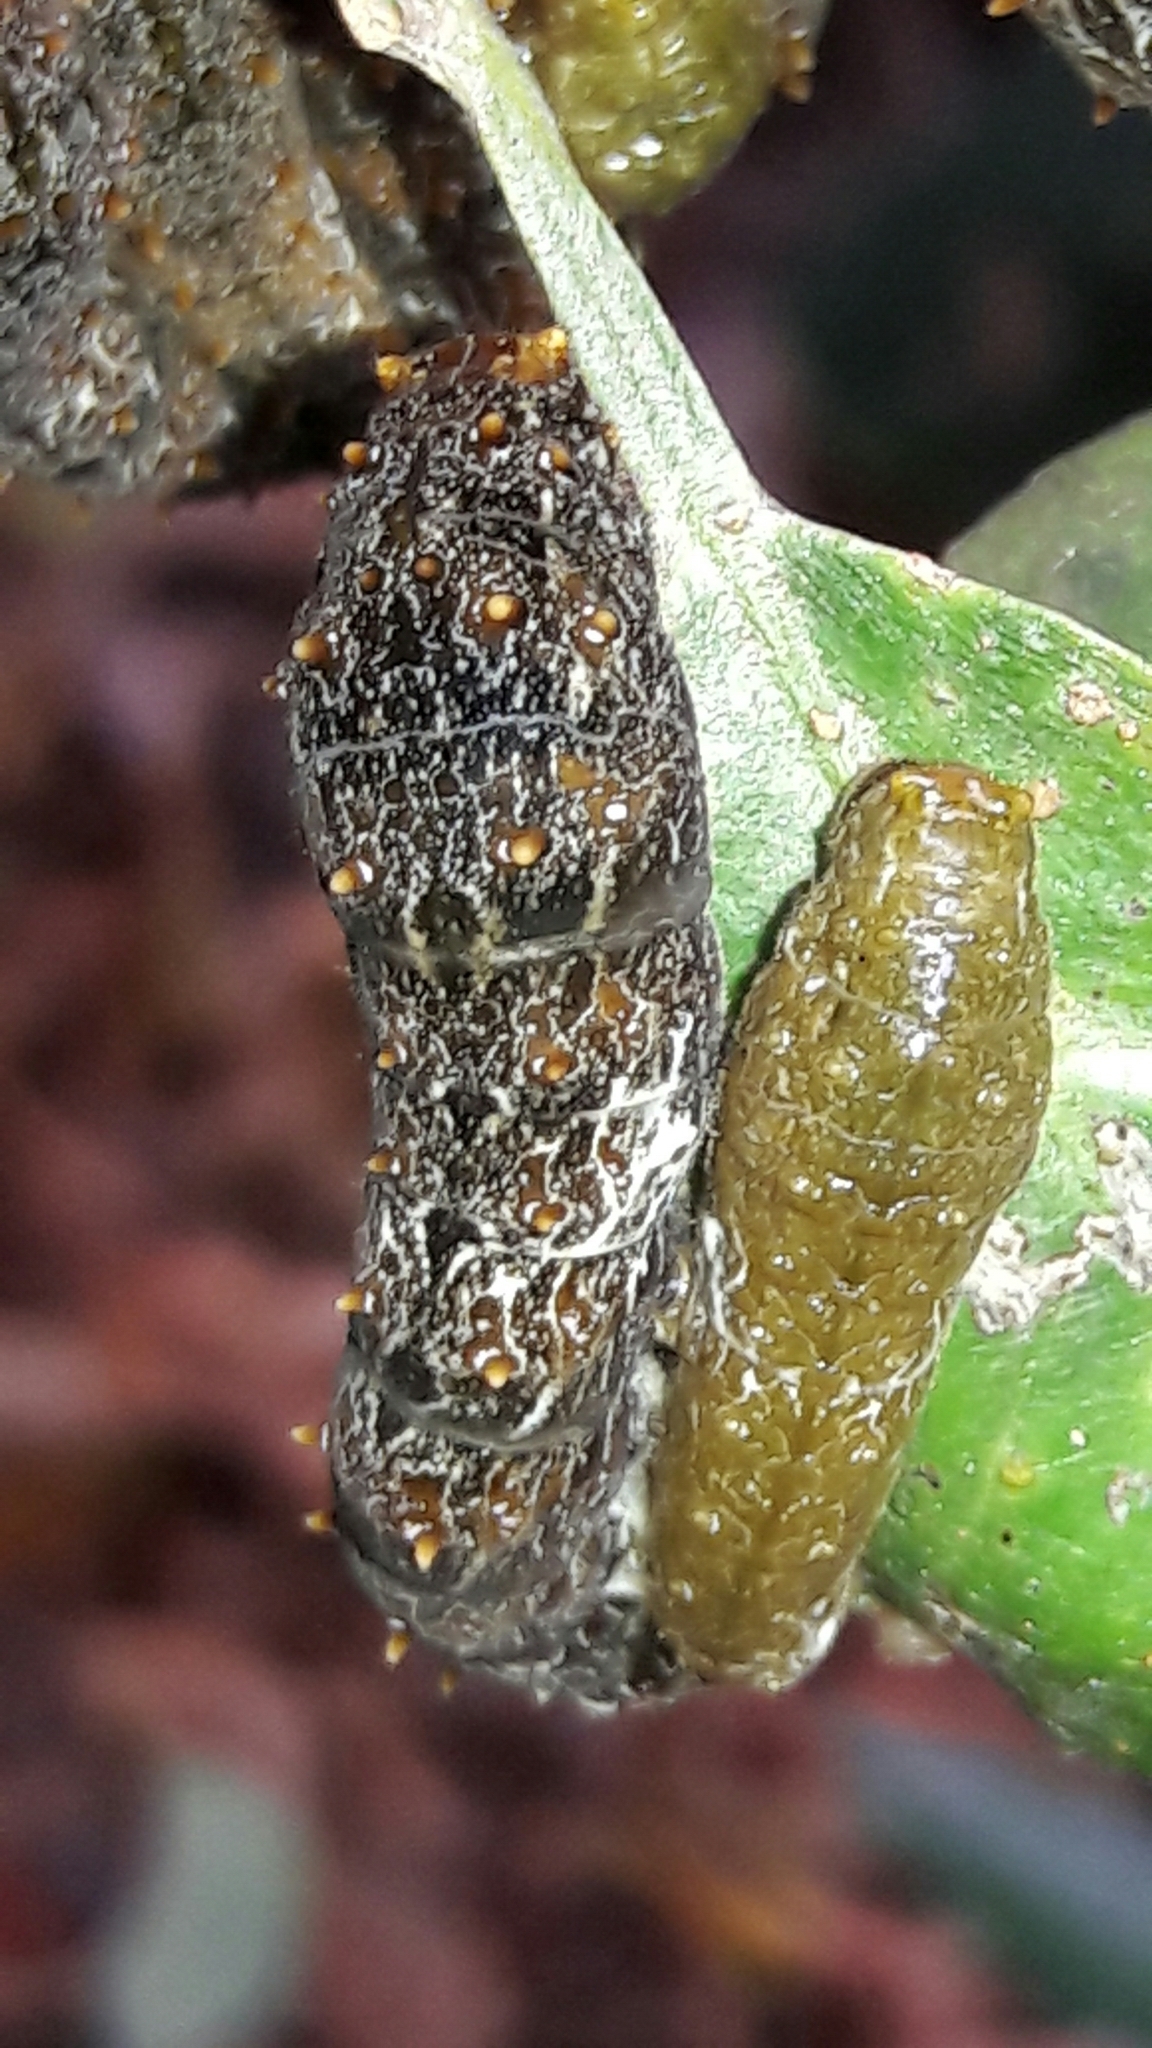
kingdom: Animalia
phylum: Arthropoda
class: Insecta
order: Lepidoptera
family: Papilionidae
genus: Papilio
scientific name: Papilio anchisiades
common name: Idaes swallowtail
